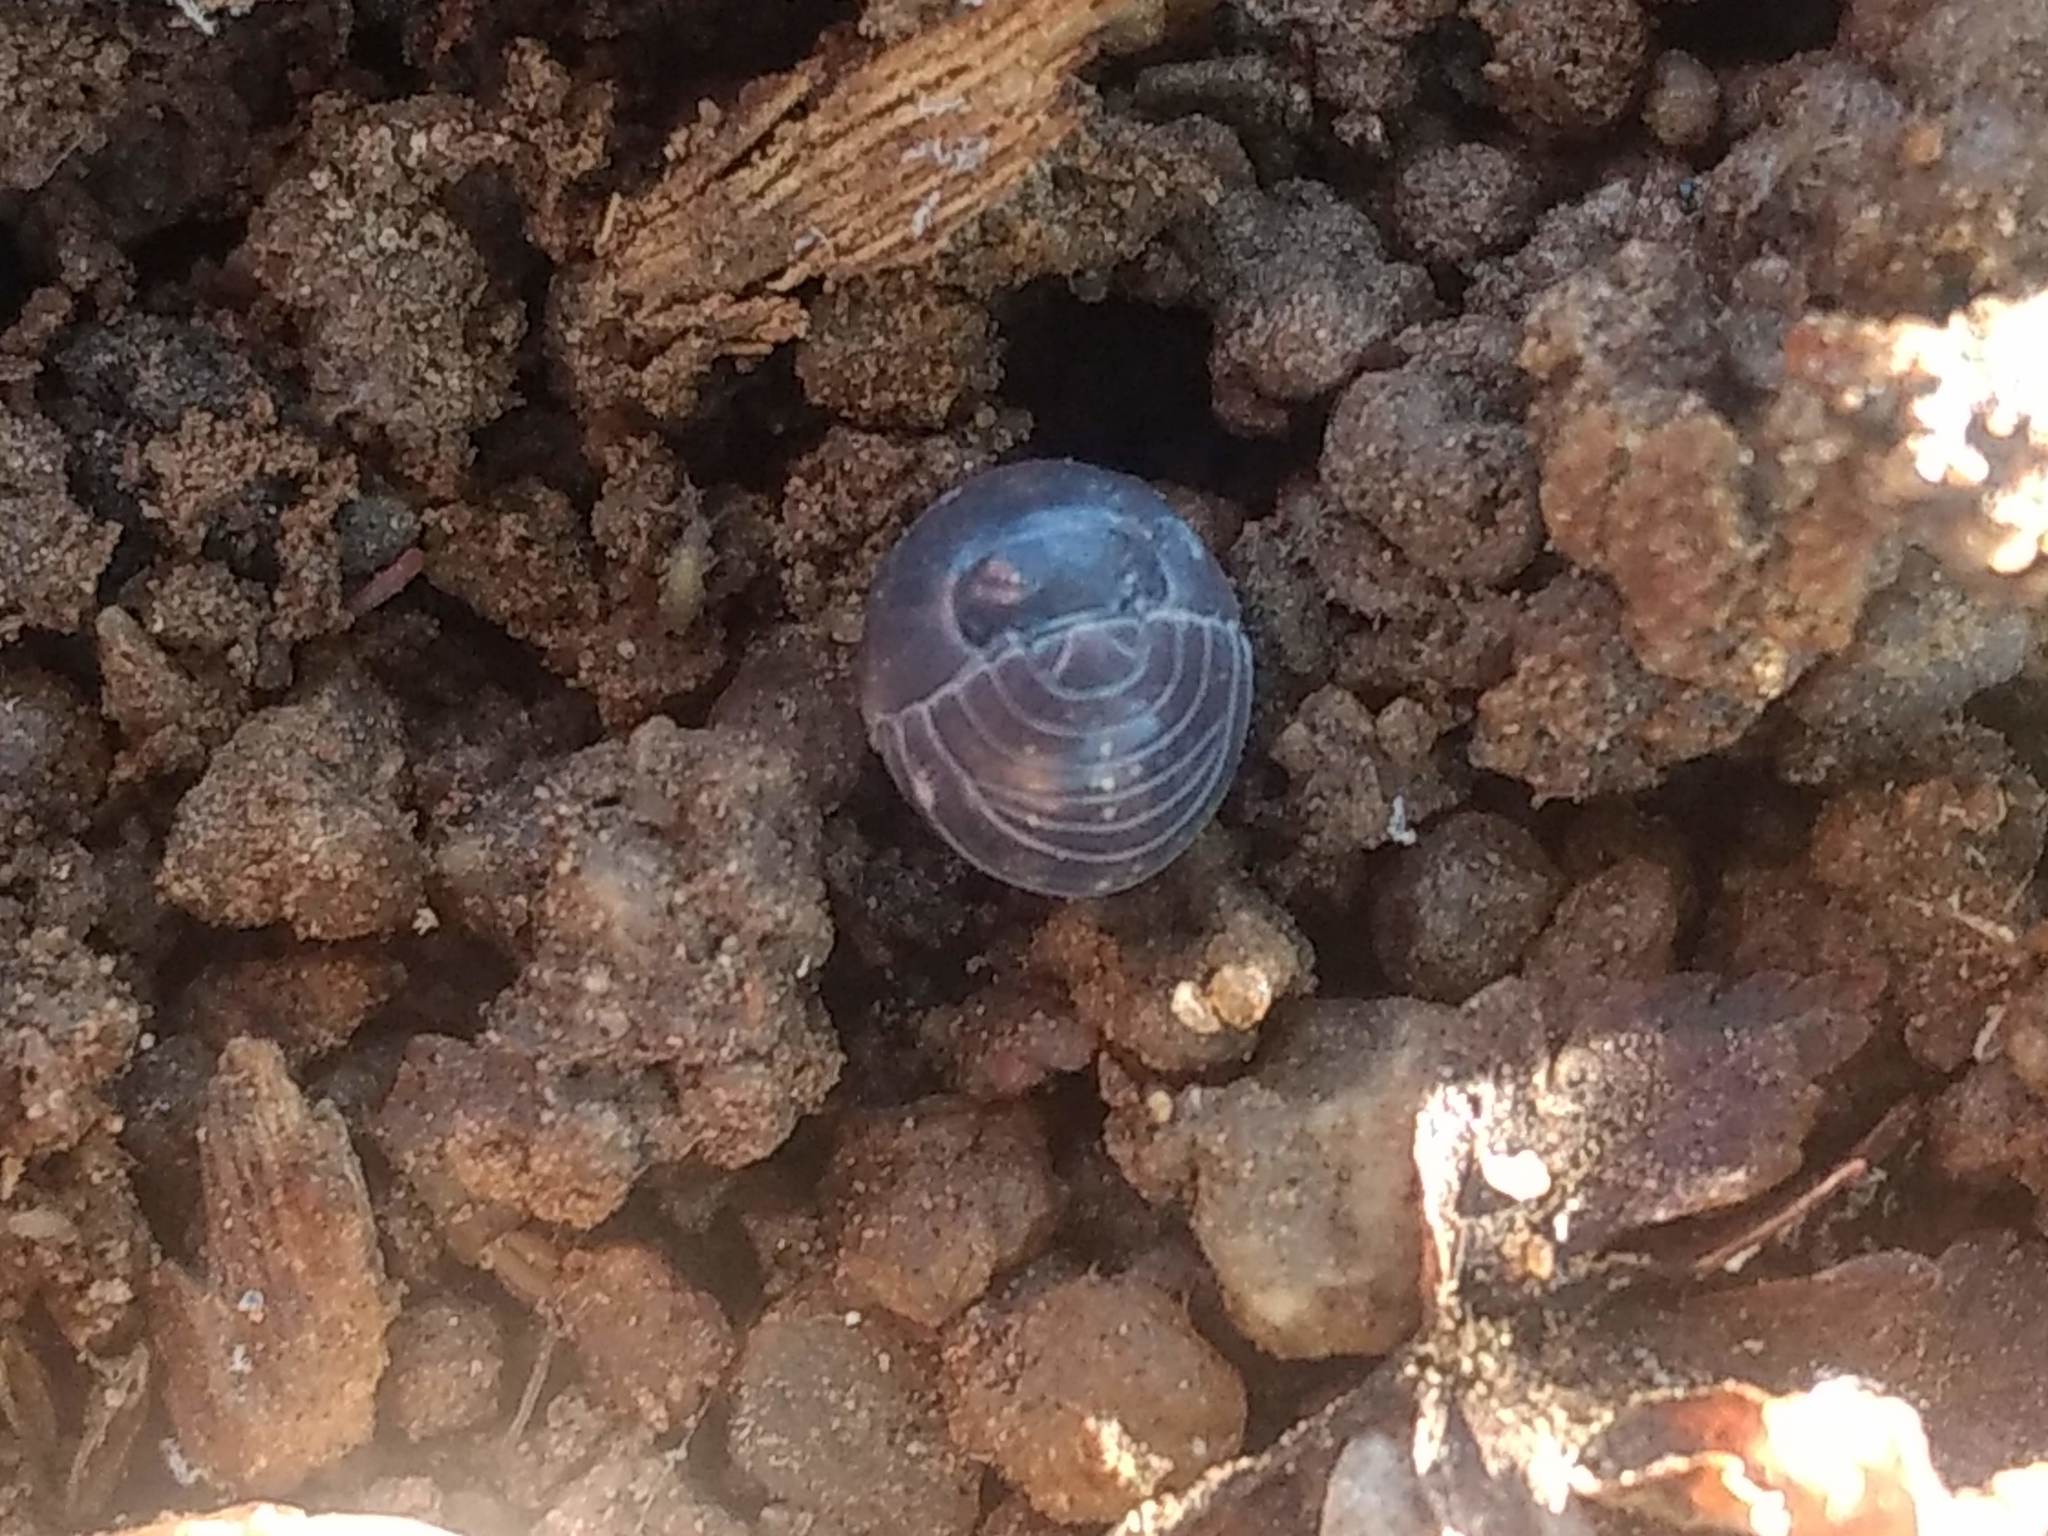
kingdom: Animalia
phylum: Arthropoda
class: Malacostraca
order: Isopoda
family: Armadillidiidae
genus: Armadillidium
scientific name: Armadillidium vulgare
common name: Common pill woodlouse
